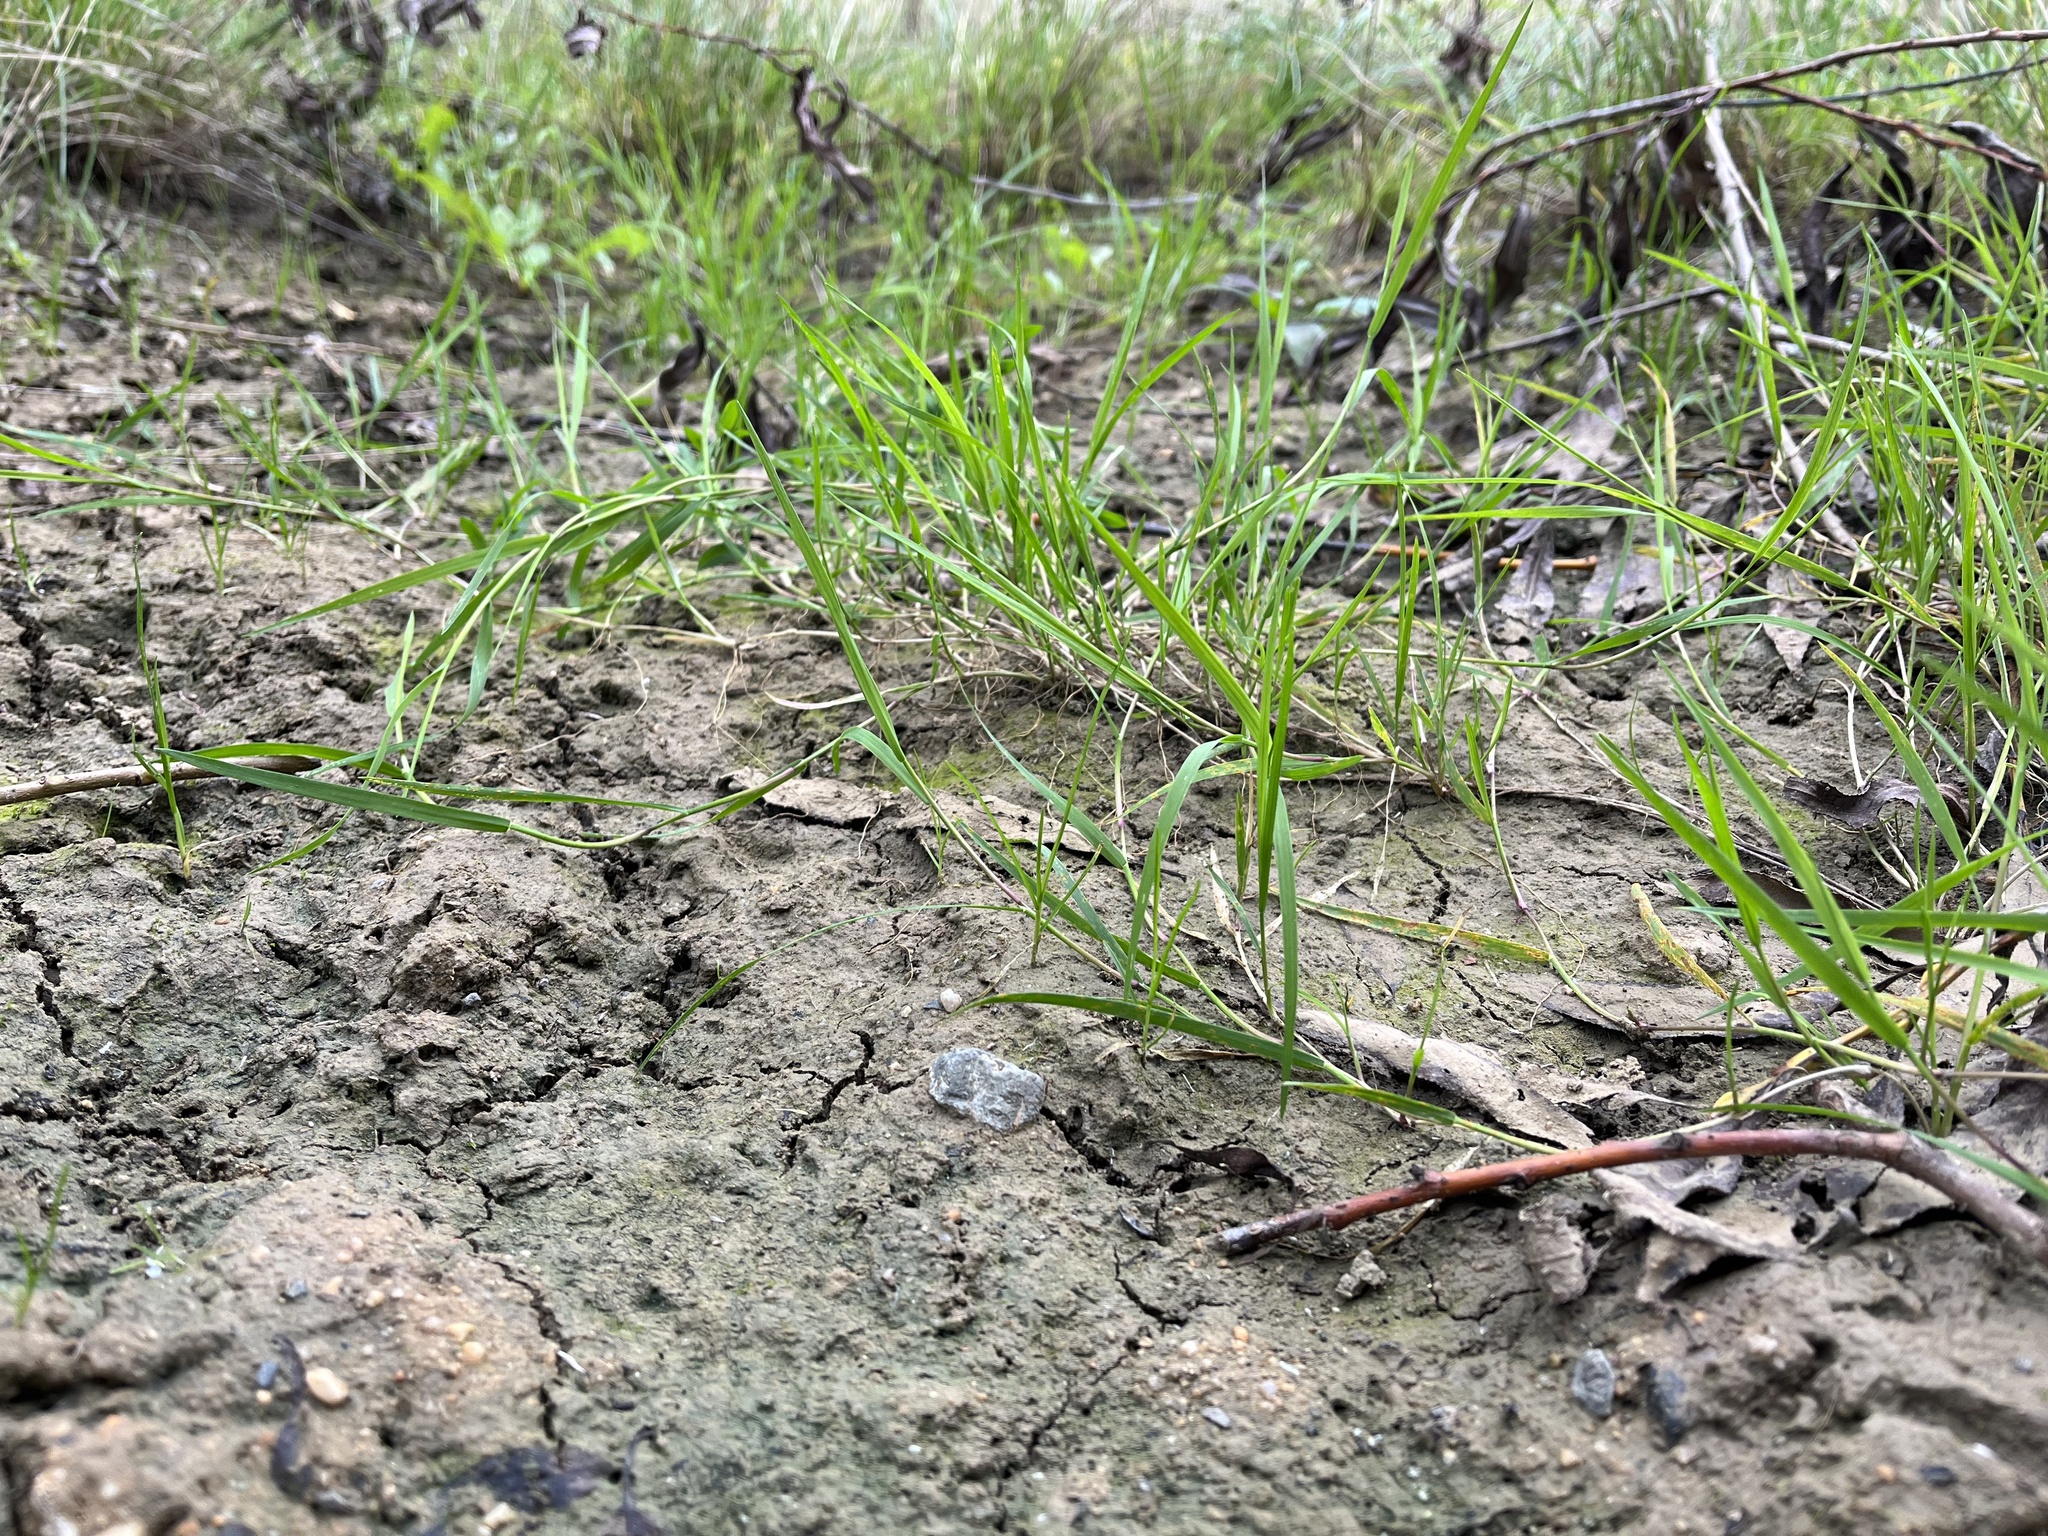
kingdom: Plantae
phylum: Tracheophyta
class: Liliopsida
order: Poales
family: Poaceae
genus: Agrostis
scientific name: Agrostis stolonifera
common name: Creeping bentgrass
